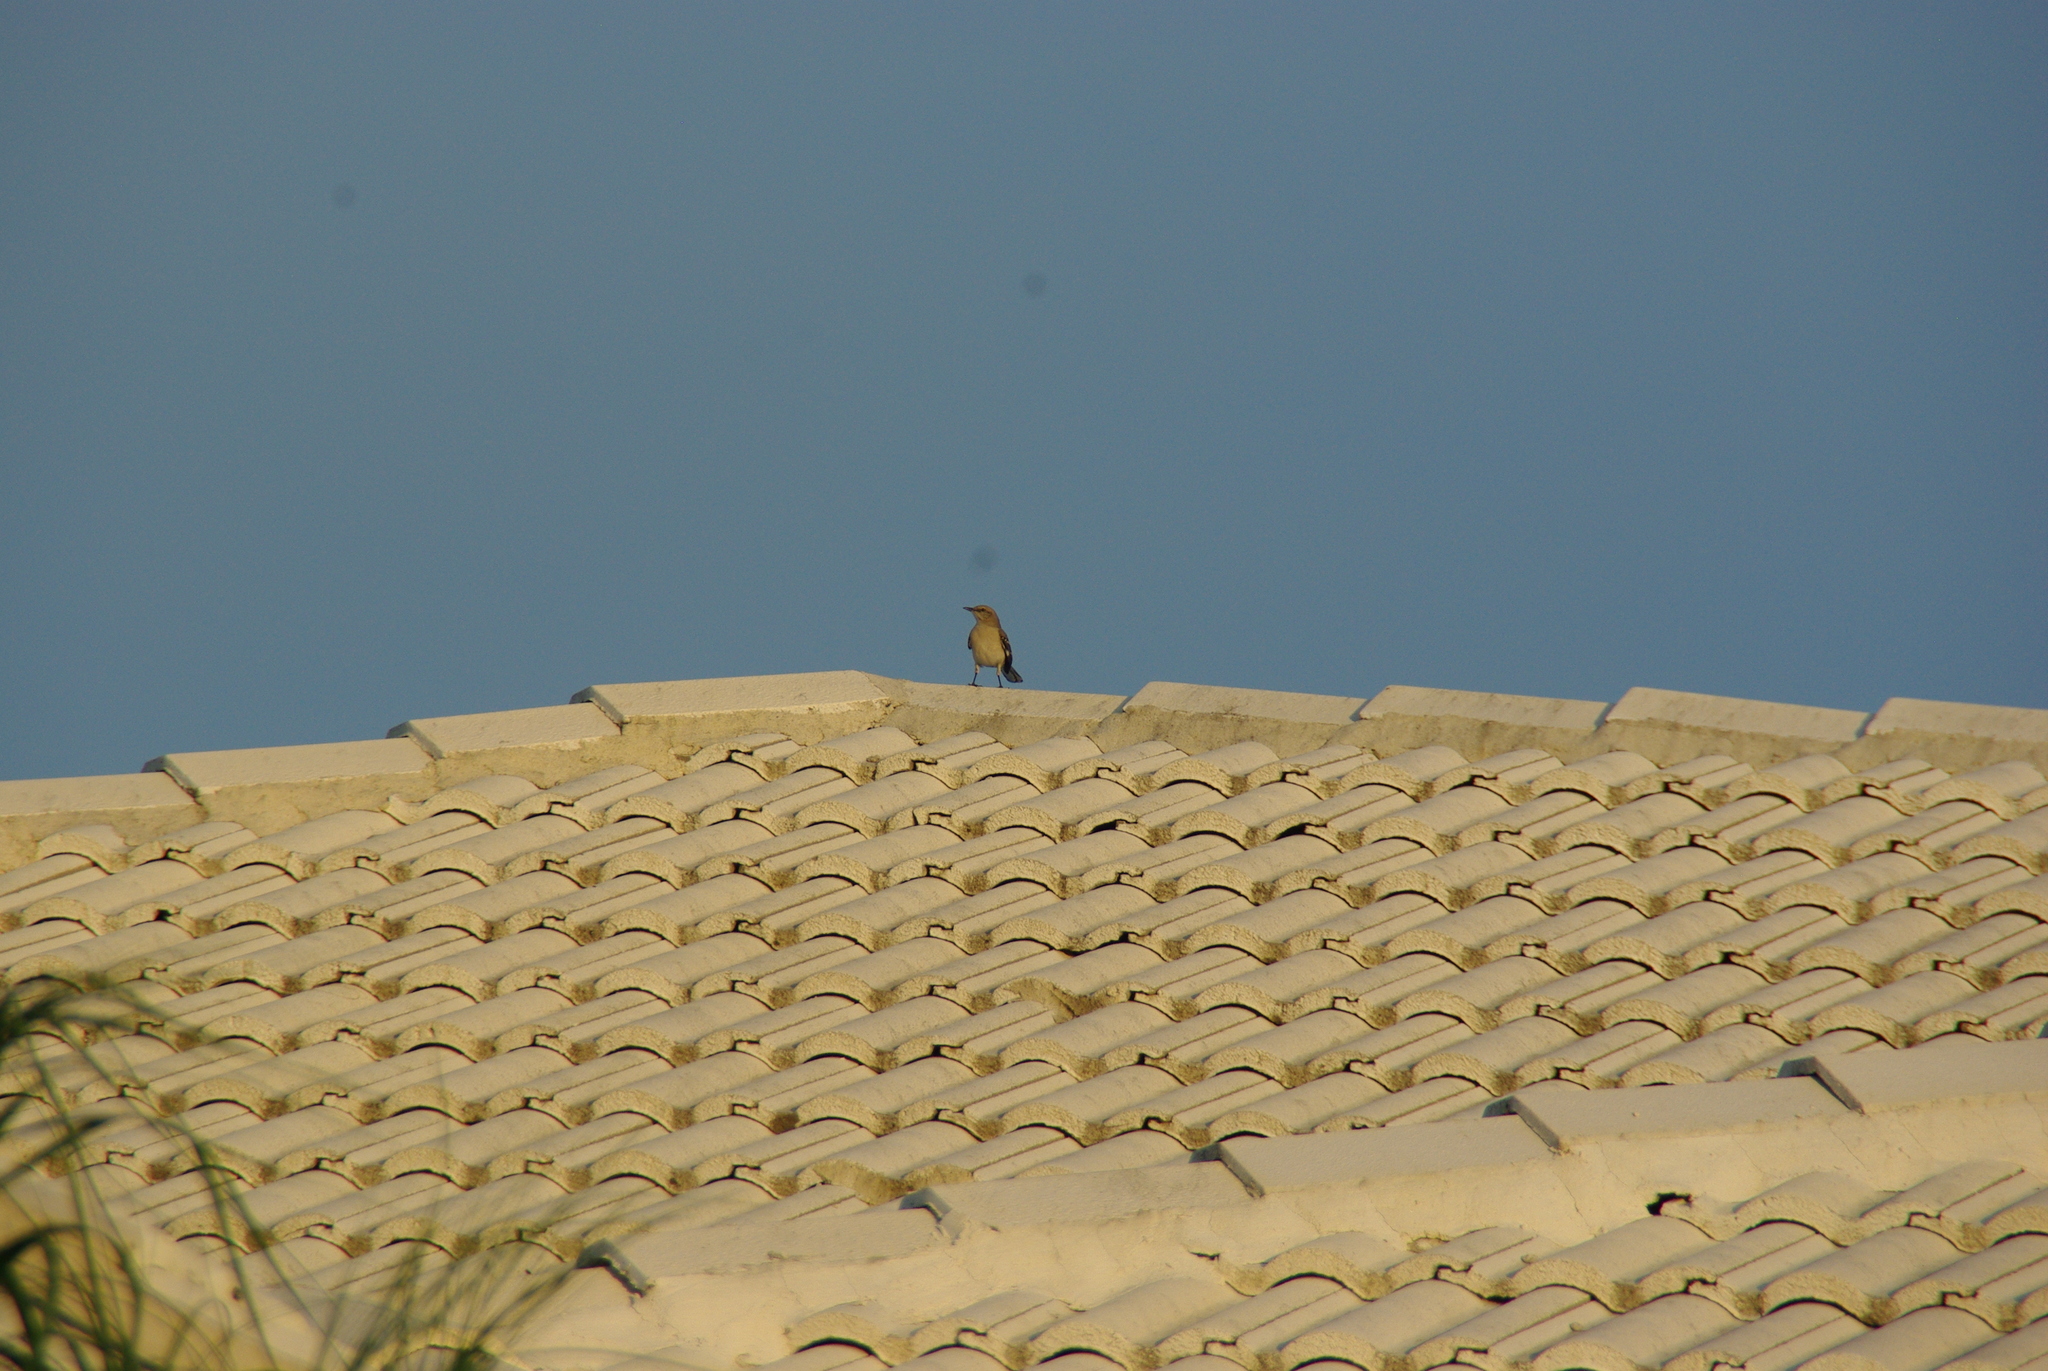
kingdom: Animalia
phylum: Chordata
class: Aves
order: Passeriformes
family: Mimidae
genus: Mimus
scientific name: Mimus polyglottos
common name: Northern mockingbird
